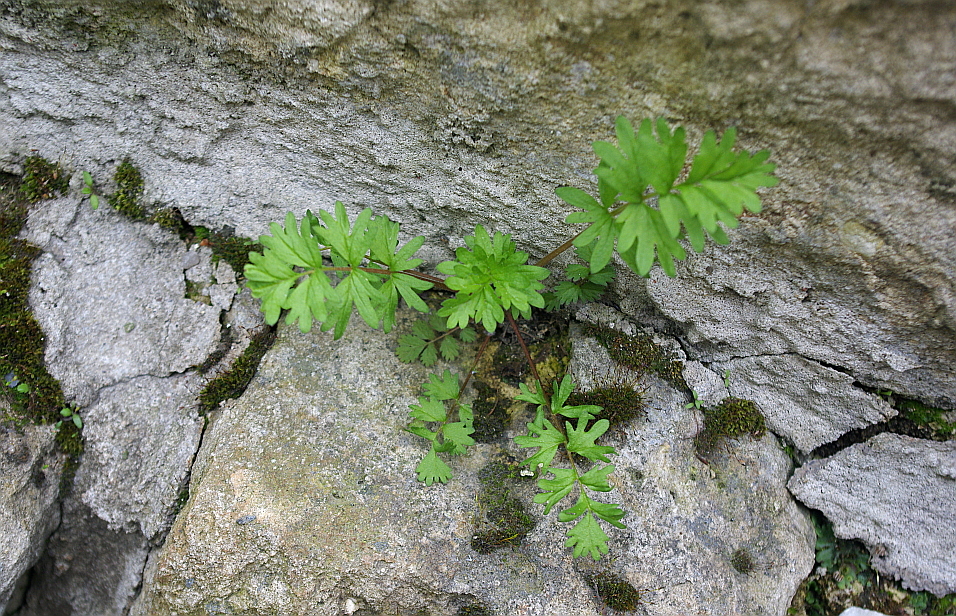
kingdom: Plantae
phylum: Tracheophyta
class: Magnoliopsida
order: Rosales
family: Rosaceae
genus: Potentilla
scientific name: Potentilla supina
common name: Prostrate cinquefoil
